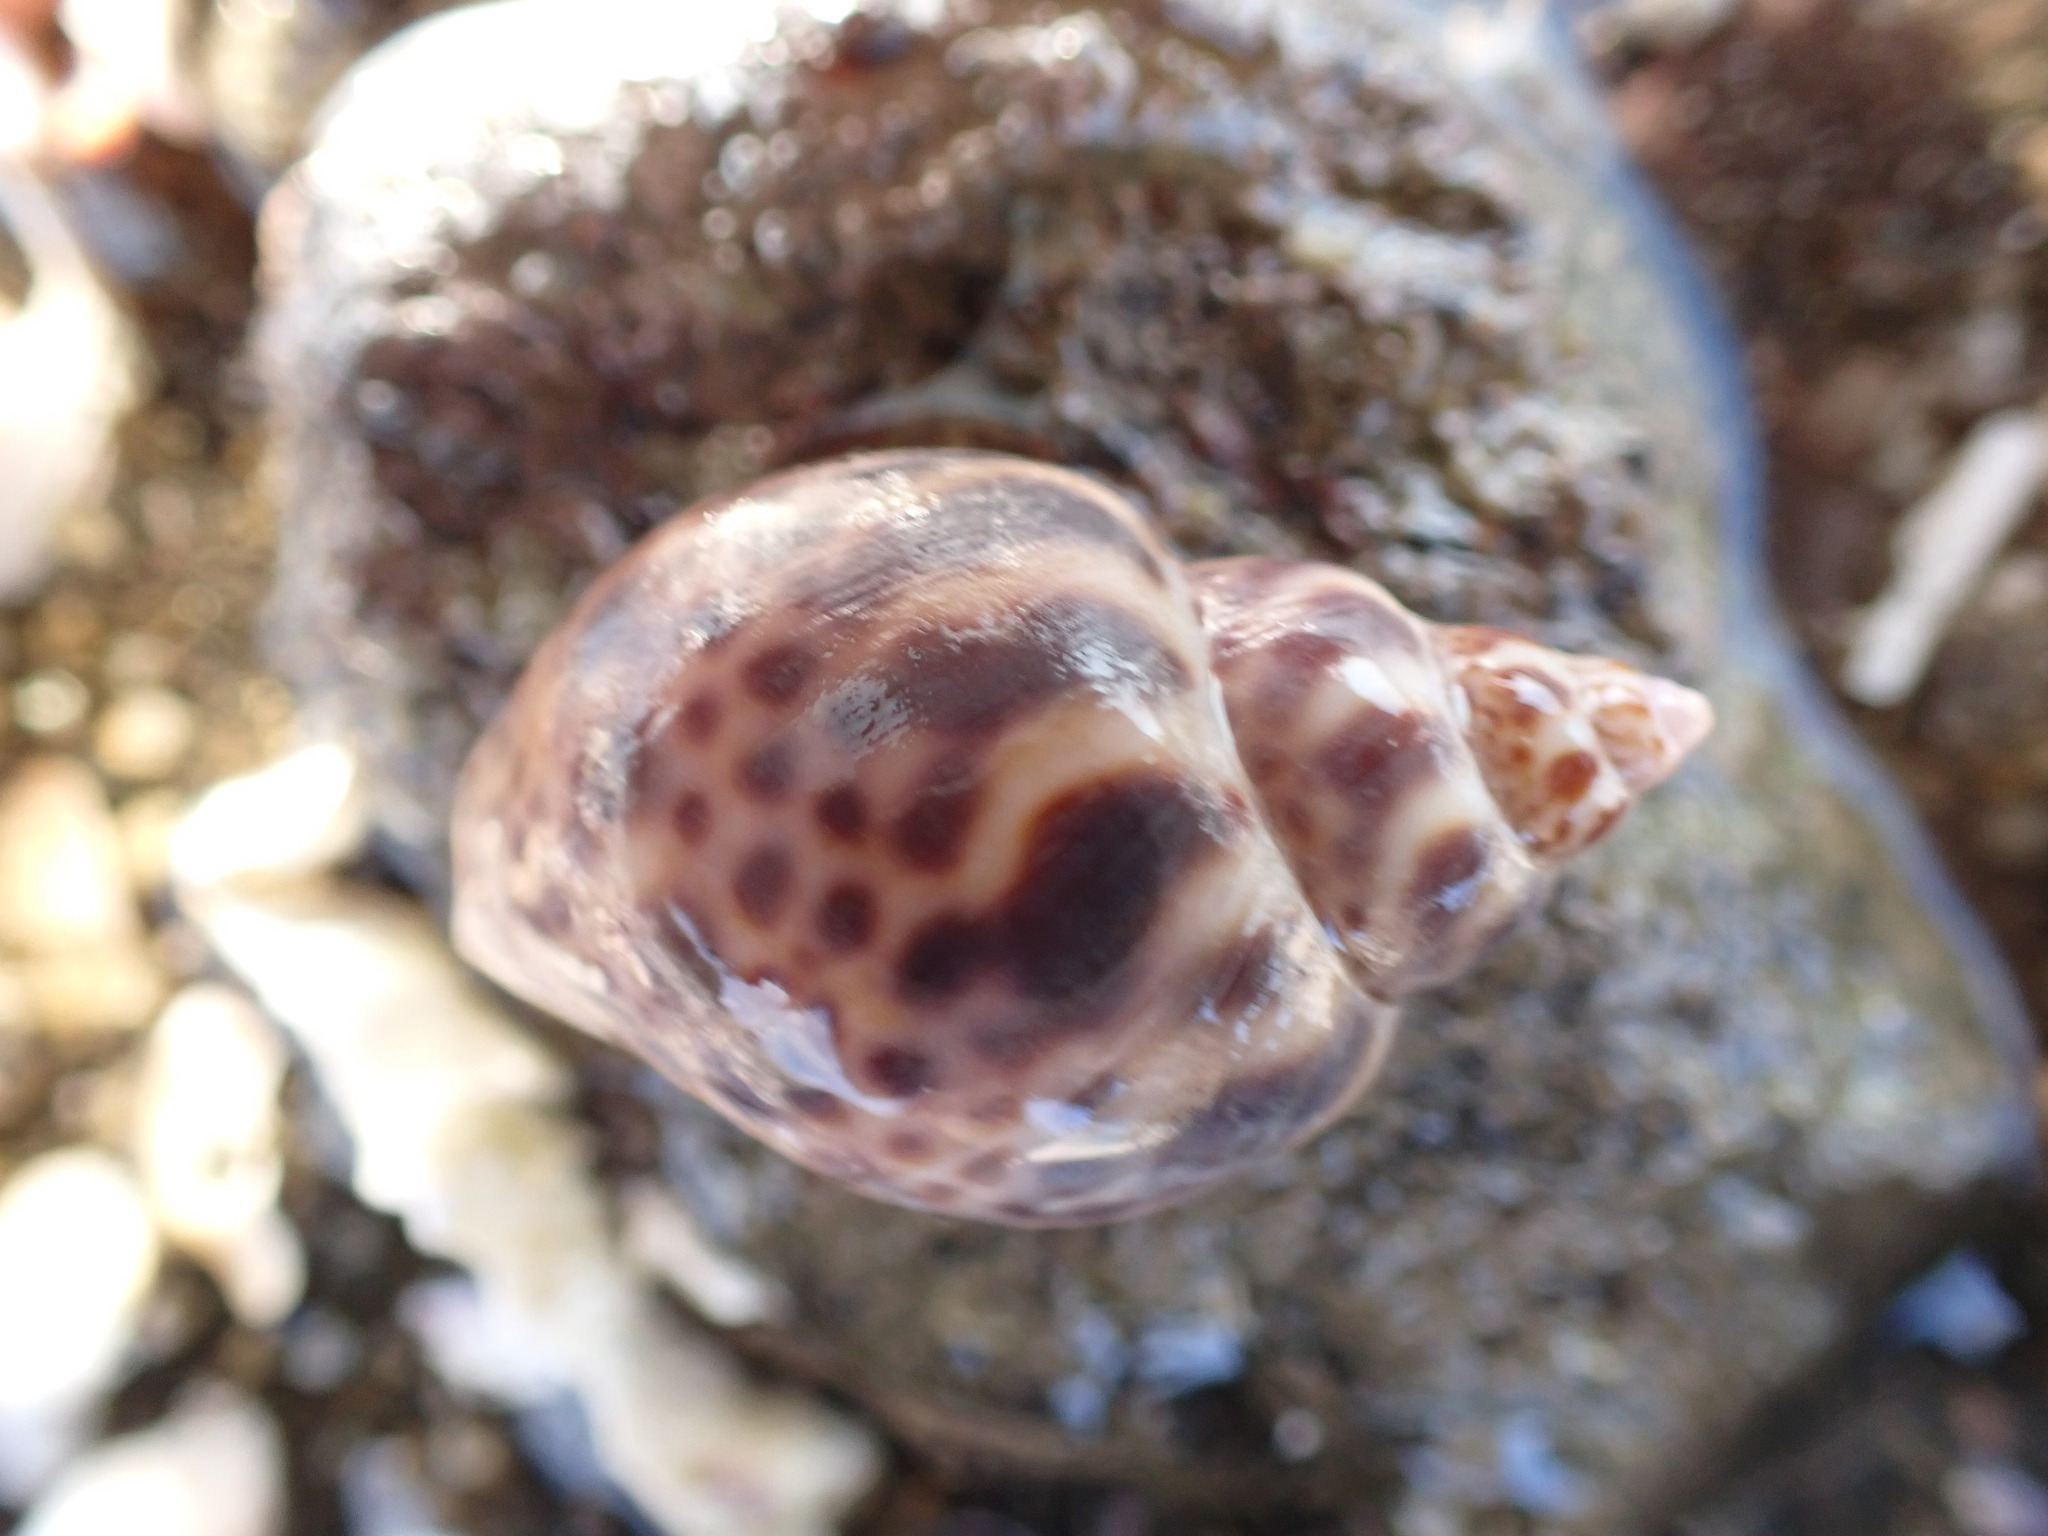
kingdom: Animalia
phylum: Mollusca
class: Gastropoda
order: Neogastropoda
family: Babyloniidae
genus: Babylonia
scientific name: Babylonia japonica
